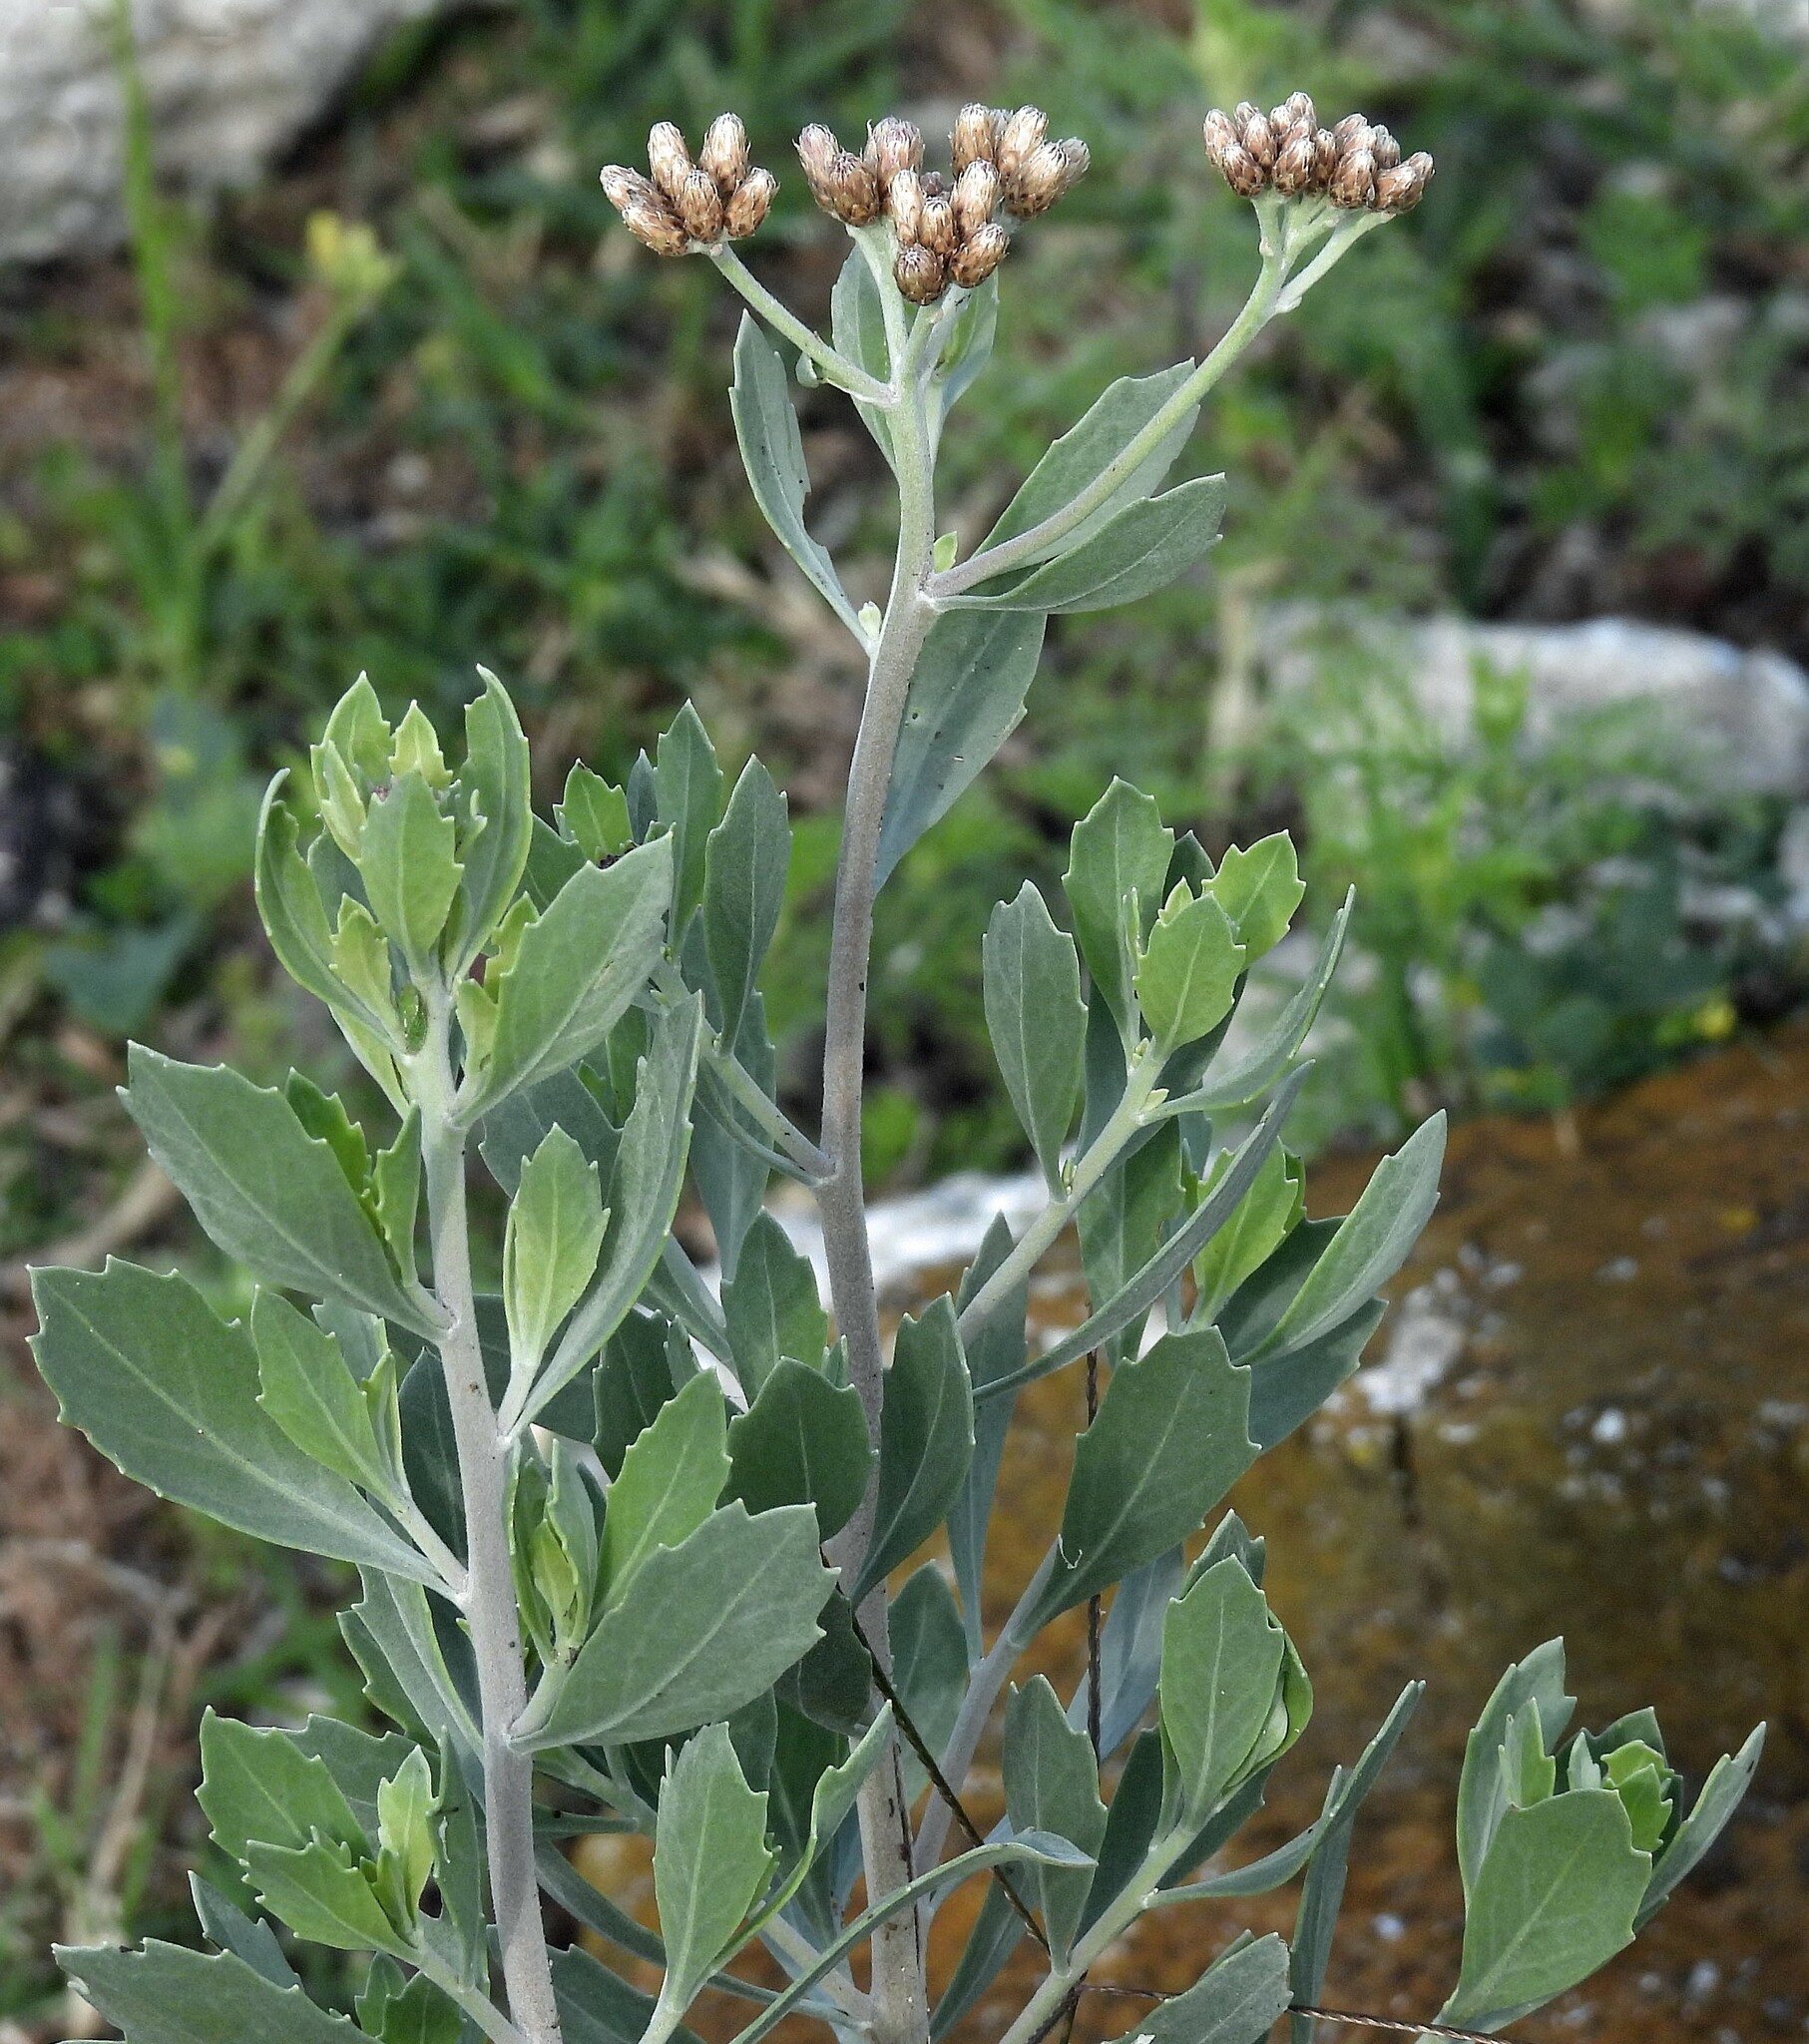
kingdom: Plantae
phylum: Tracheophyta
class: Magnoliopsida
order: Asterales
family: Asteraceae
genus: Tessaria
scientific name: Tessaria absinthioides
